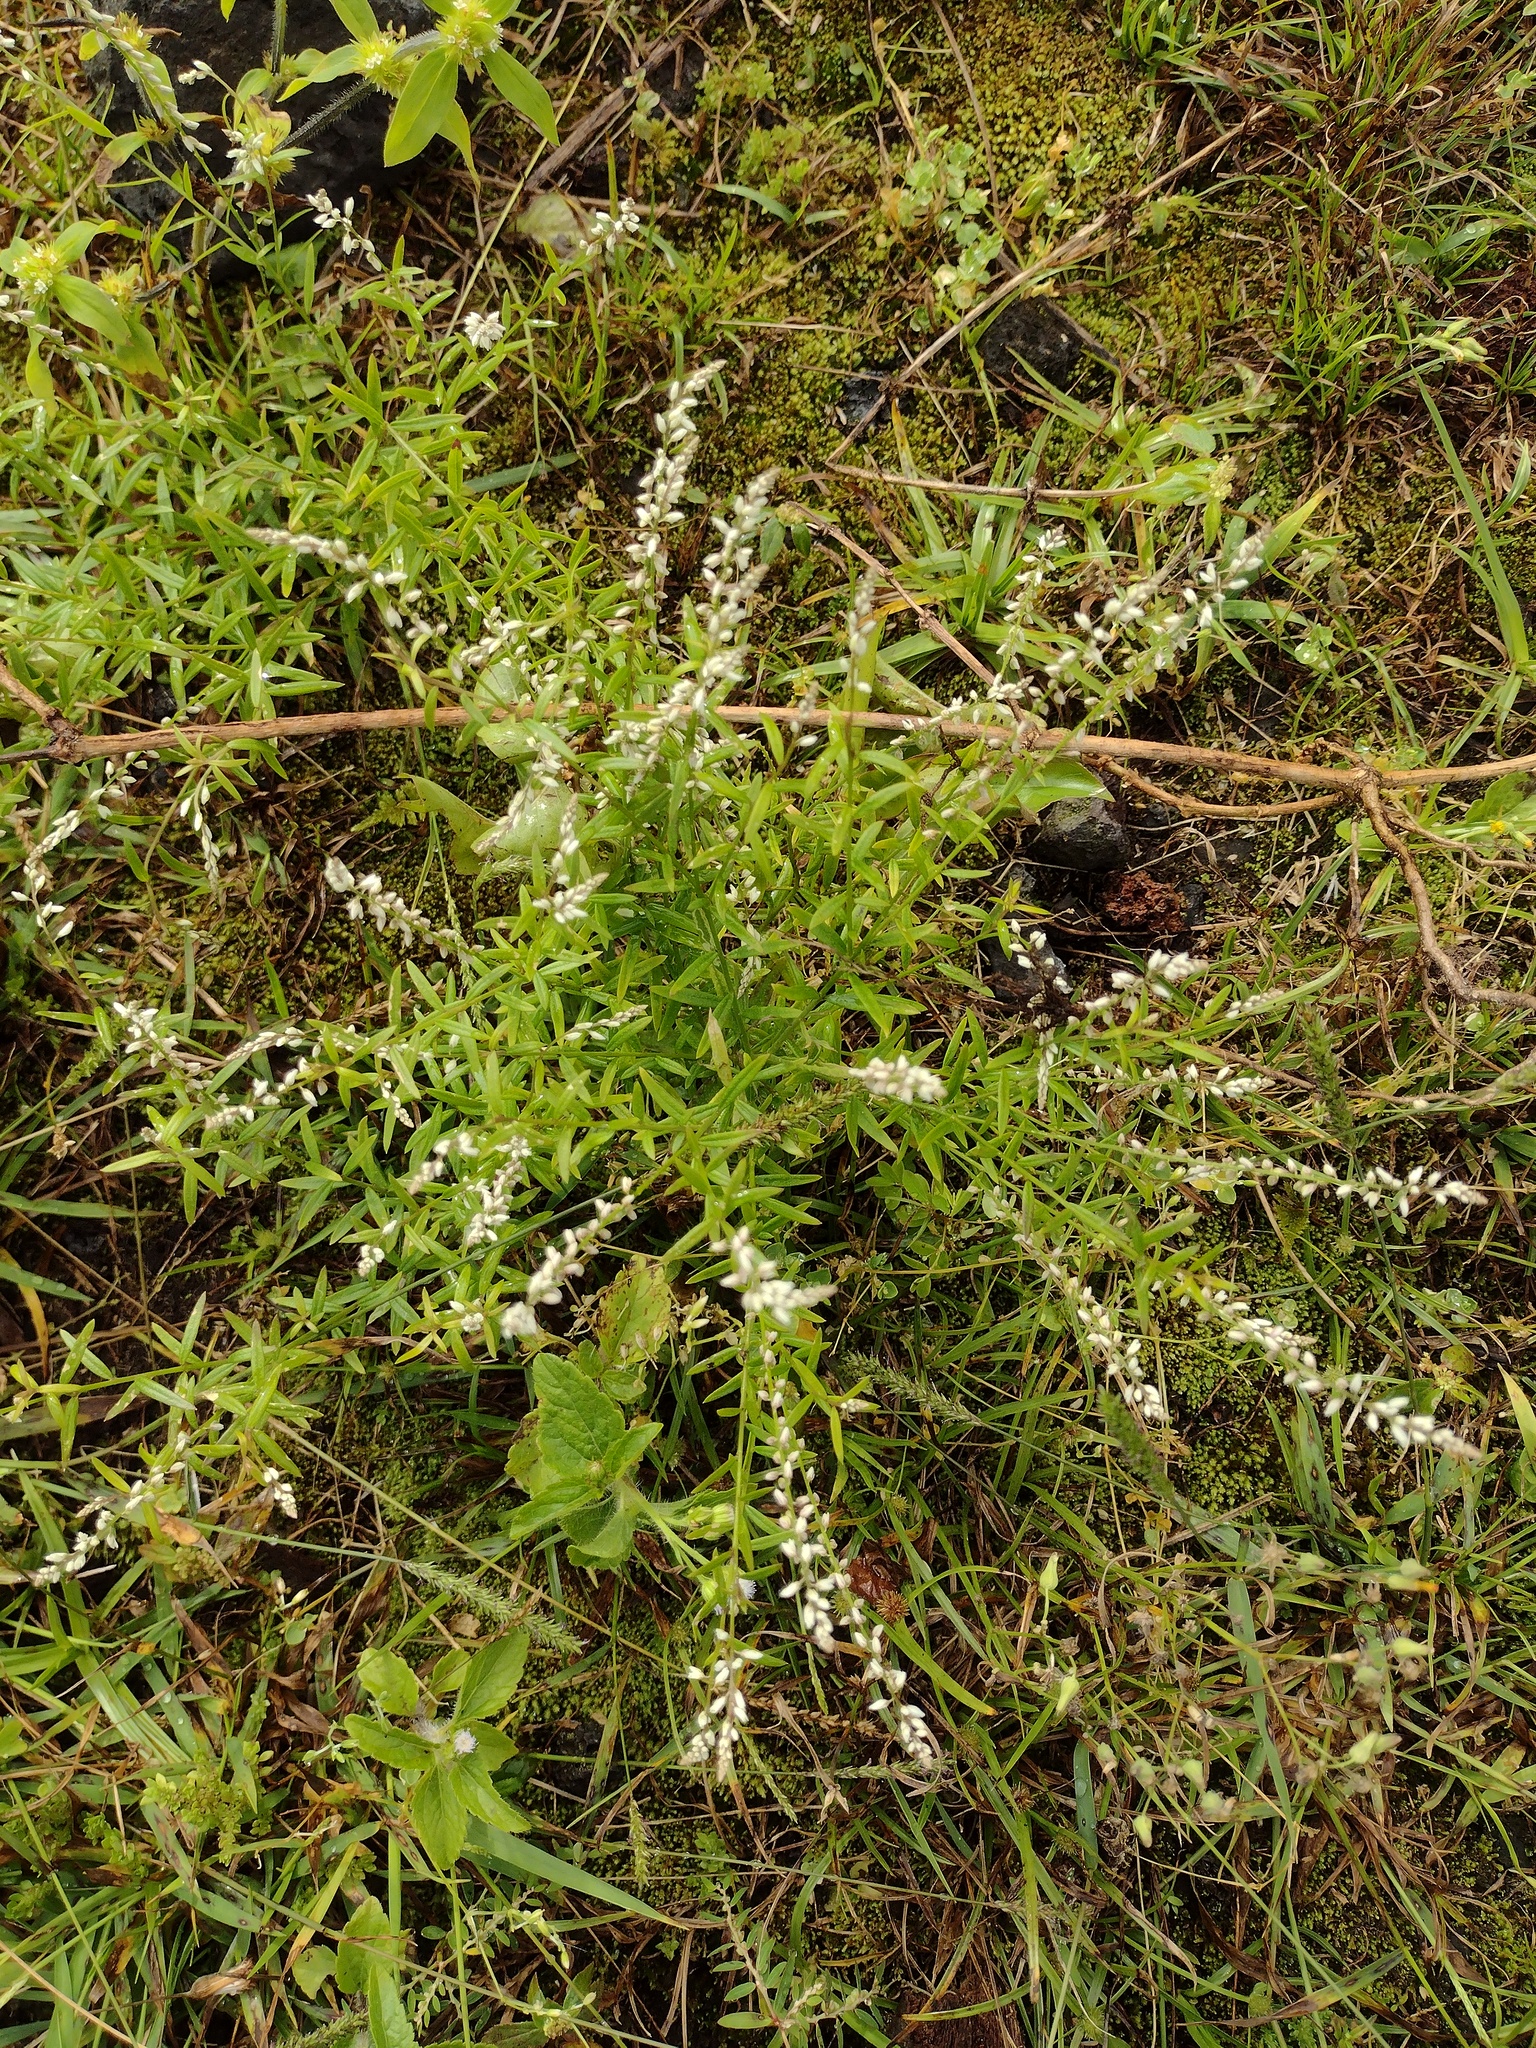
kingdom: Plantae
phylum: Tracheophyta
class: Magnoliopsida
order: Fabales
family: Polygalaceae
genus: Polygala
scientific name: Polygala paniculata
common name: Orosne
